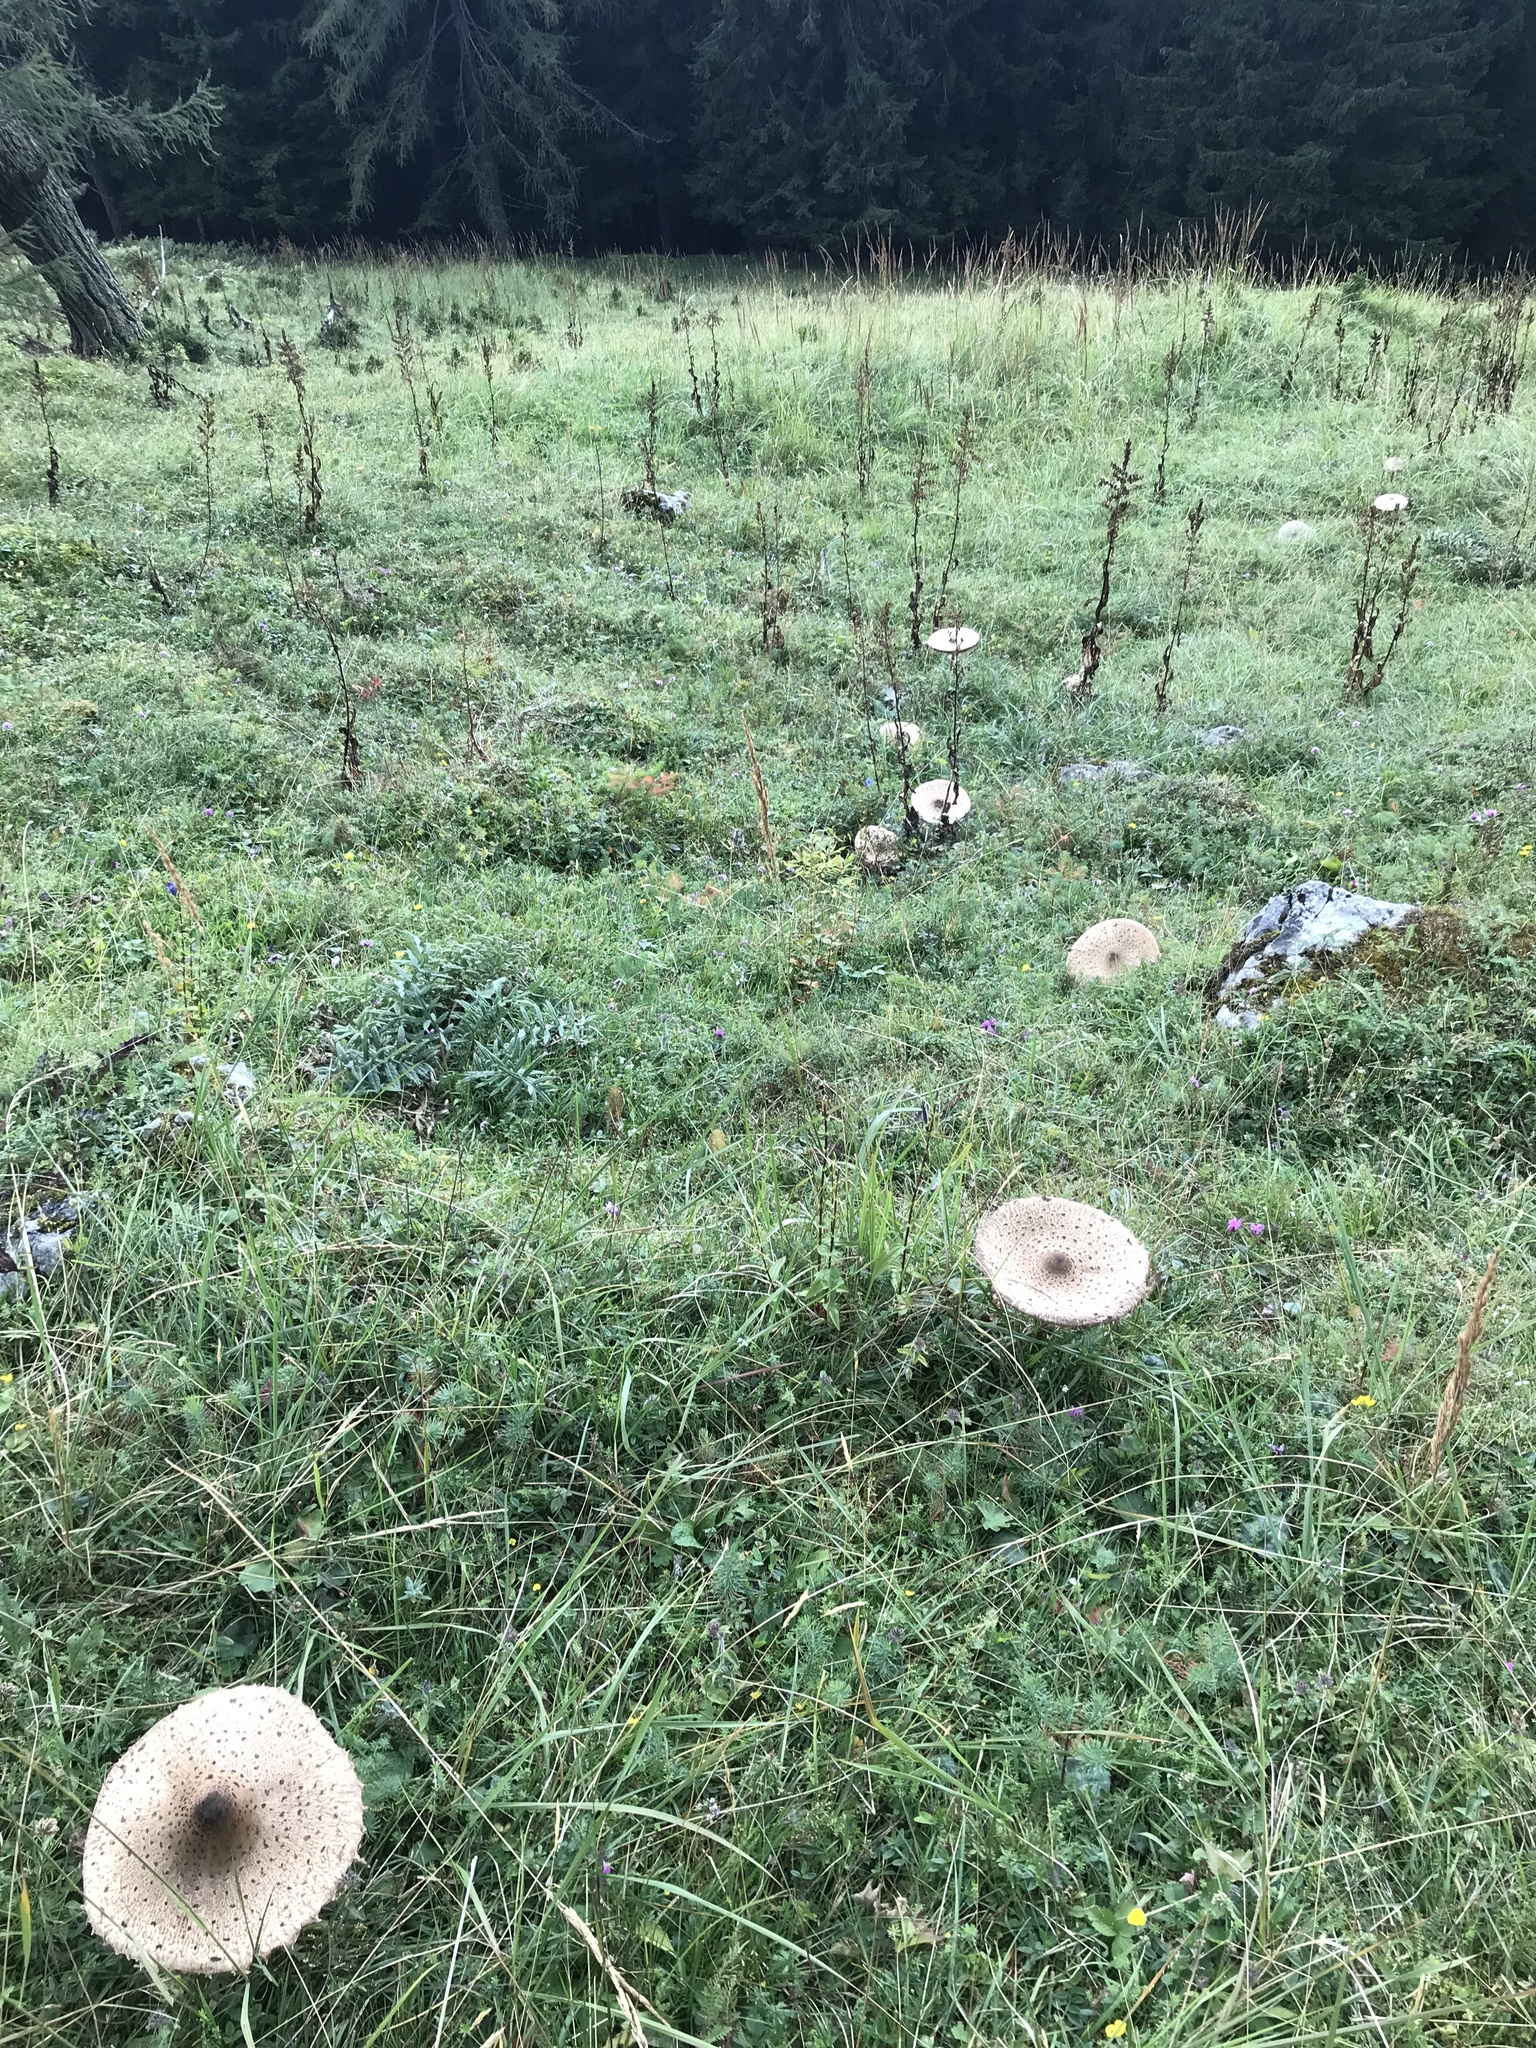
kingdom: Fungi
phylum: Basidiomycota
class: Agaricomycetes
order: Agaricales
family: Agaricaceae
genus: Macrolepiota
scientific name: Macrolepiota procera
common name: Parasol
